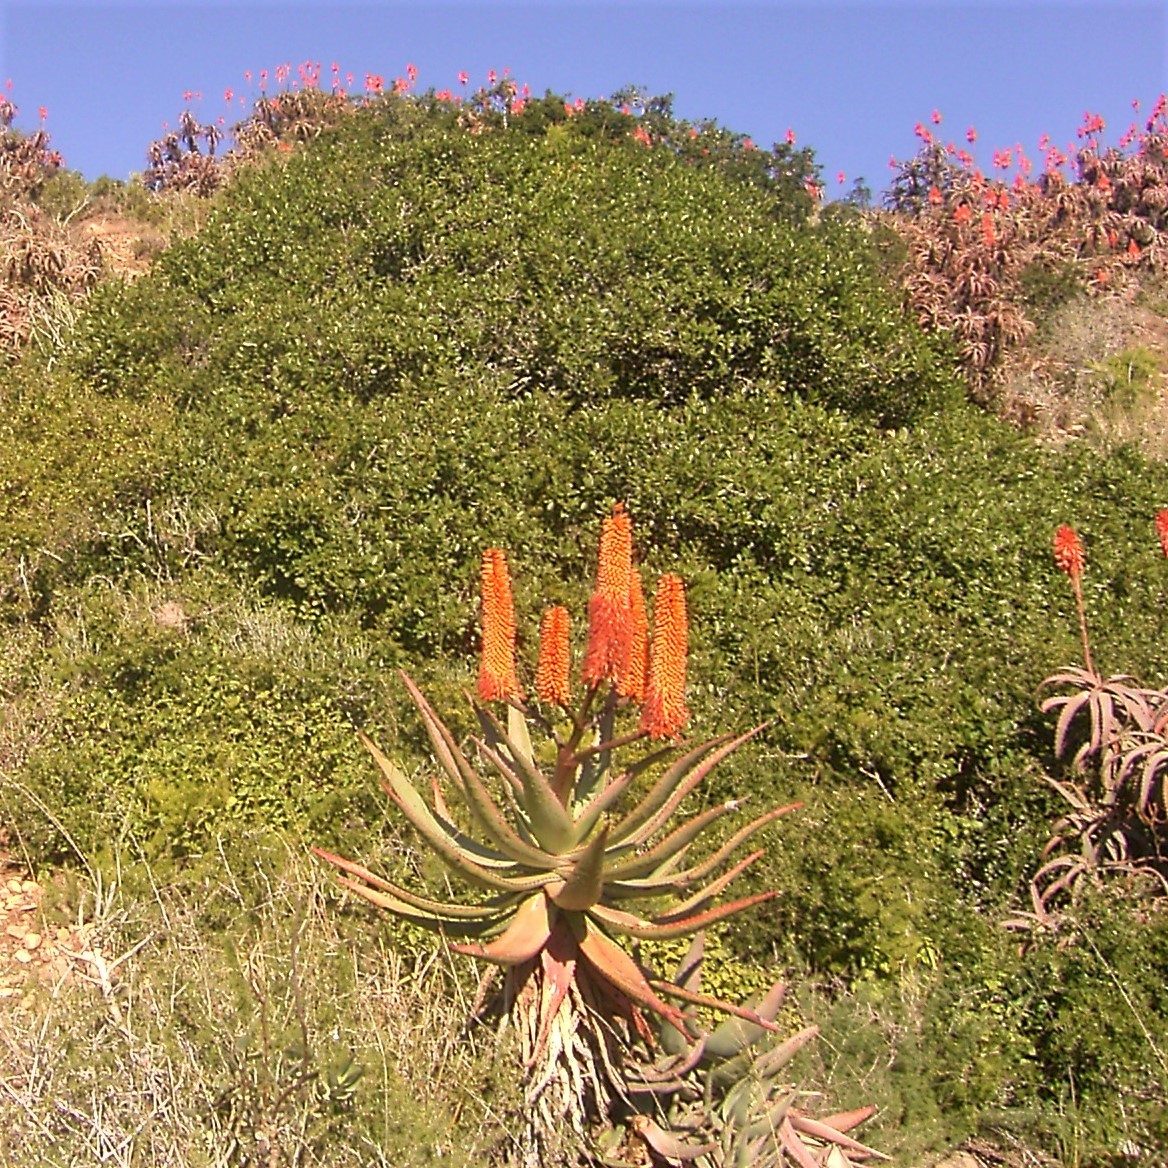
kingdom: Plantae
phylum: Tracheophyta
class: Liliopsida
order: Asparagales
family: Asphodelaceae
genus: Aloe
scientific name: Aloe ferox
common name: Bitter aloe
